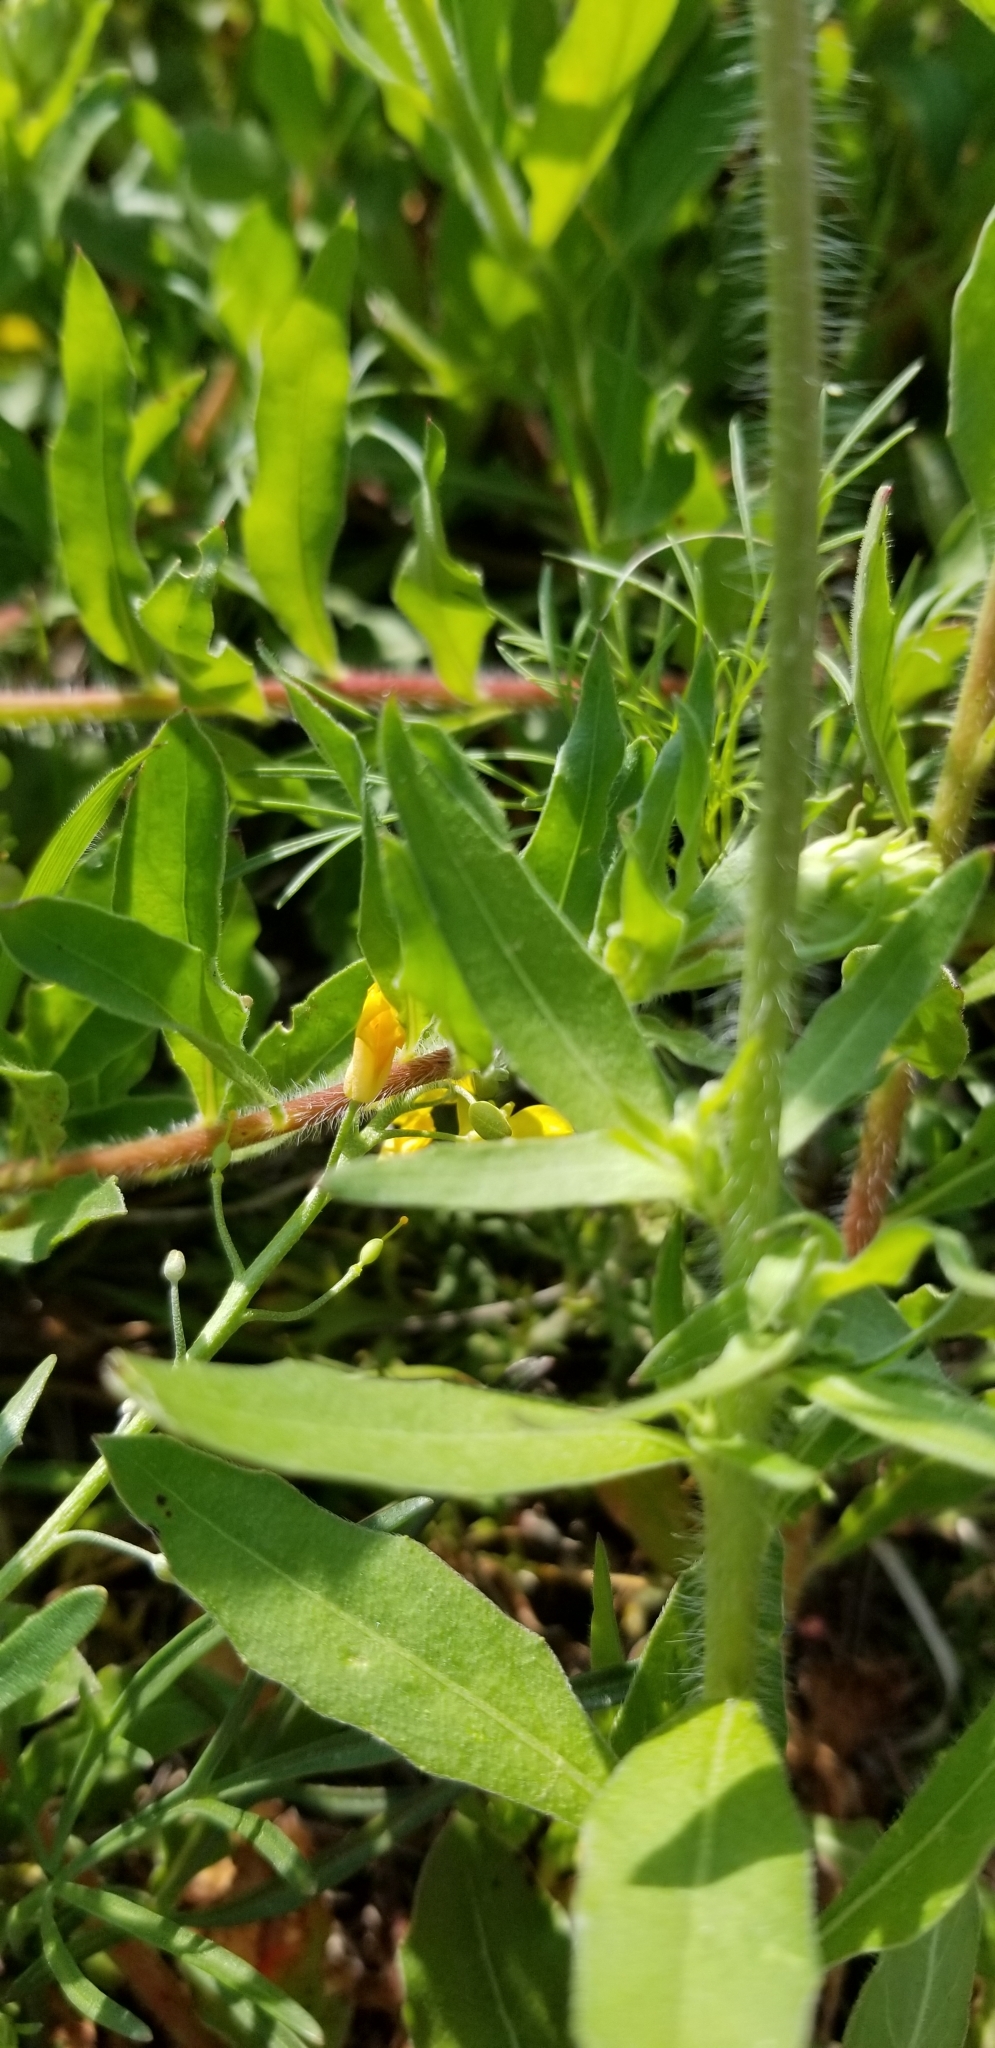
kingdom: Plantae
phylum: Tracheophyta
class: Magnoliopsida
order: Myrtales
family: Onagraceae
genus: Oenothera
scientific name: Oenothera suffulta
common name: Kisses
